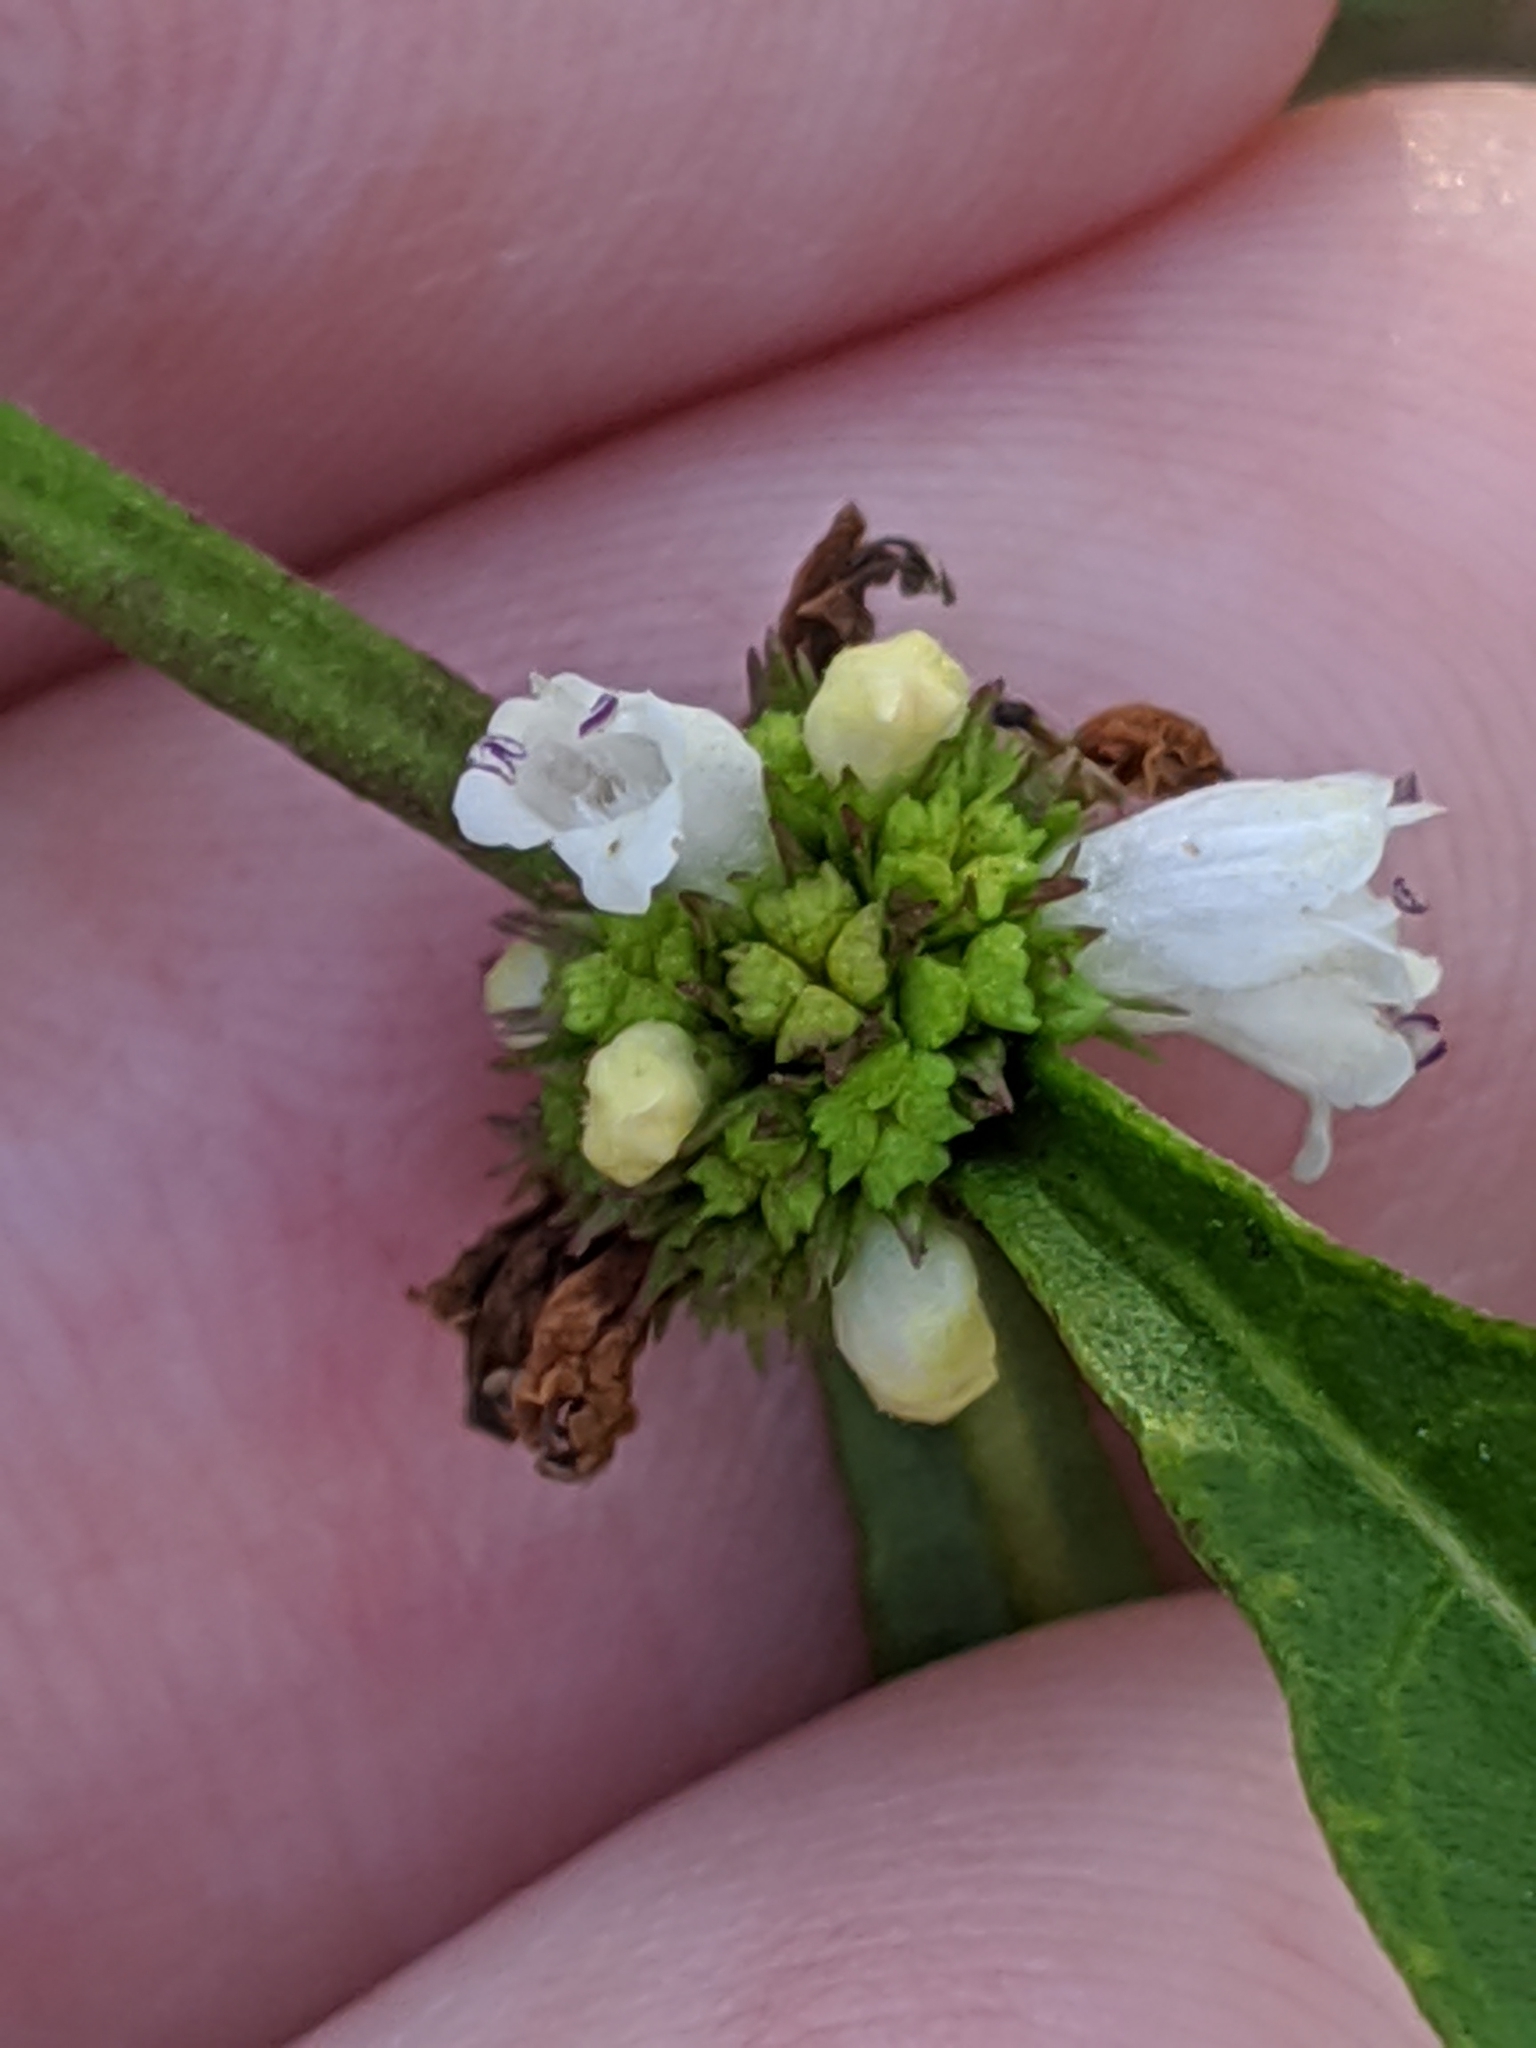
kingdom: Plantae
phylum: Tracheophyta
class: Magnoliopsida
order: Lamiales
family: Lamiaceae
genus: Lycopus
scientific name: Lycopus rubellus
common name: Stalked bugleweed
